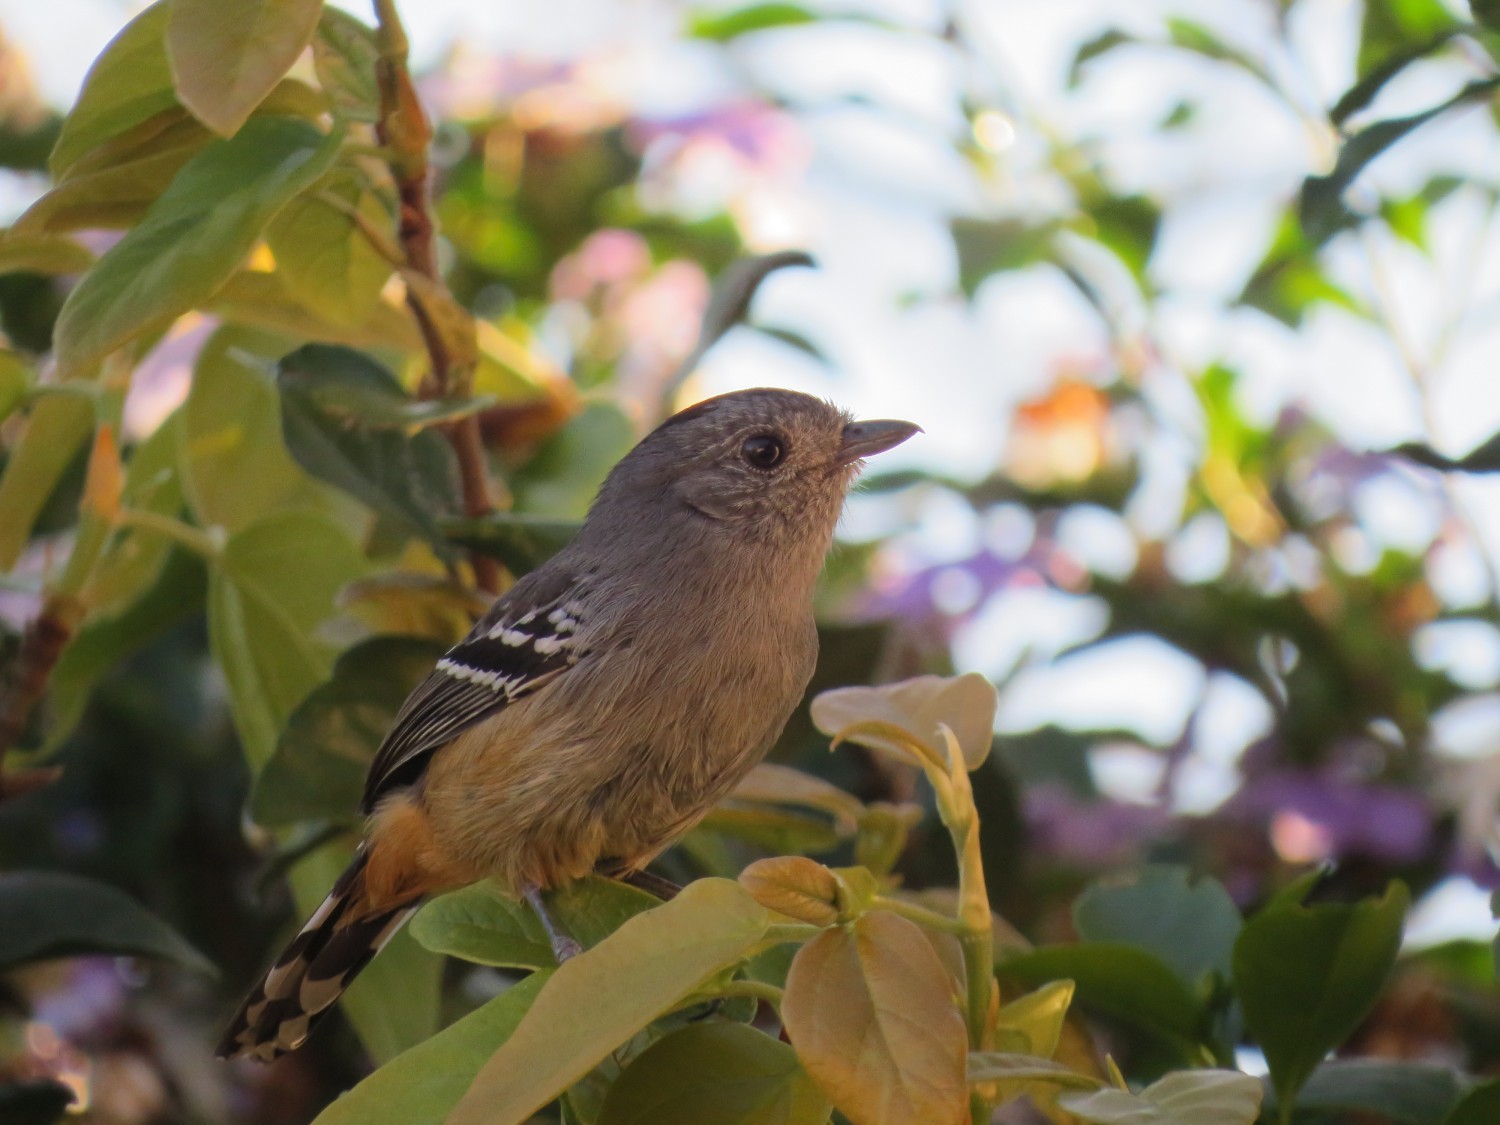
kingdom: Animalia
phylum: Chordata
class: Aves
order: Passeriformes
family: Thamnophilidae
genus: Thamnophilus
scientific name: Thamnophilus caerulescens
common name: Variable antshrike
